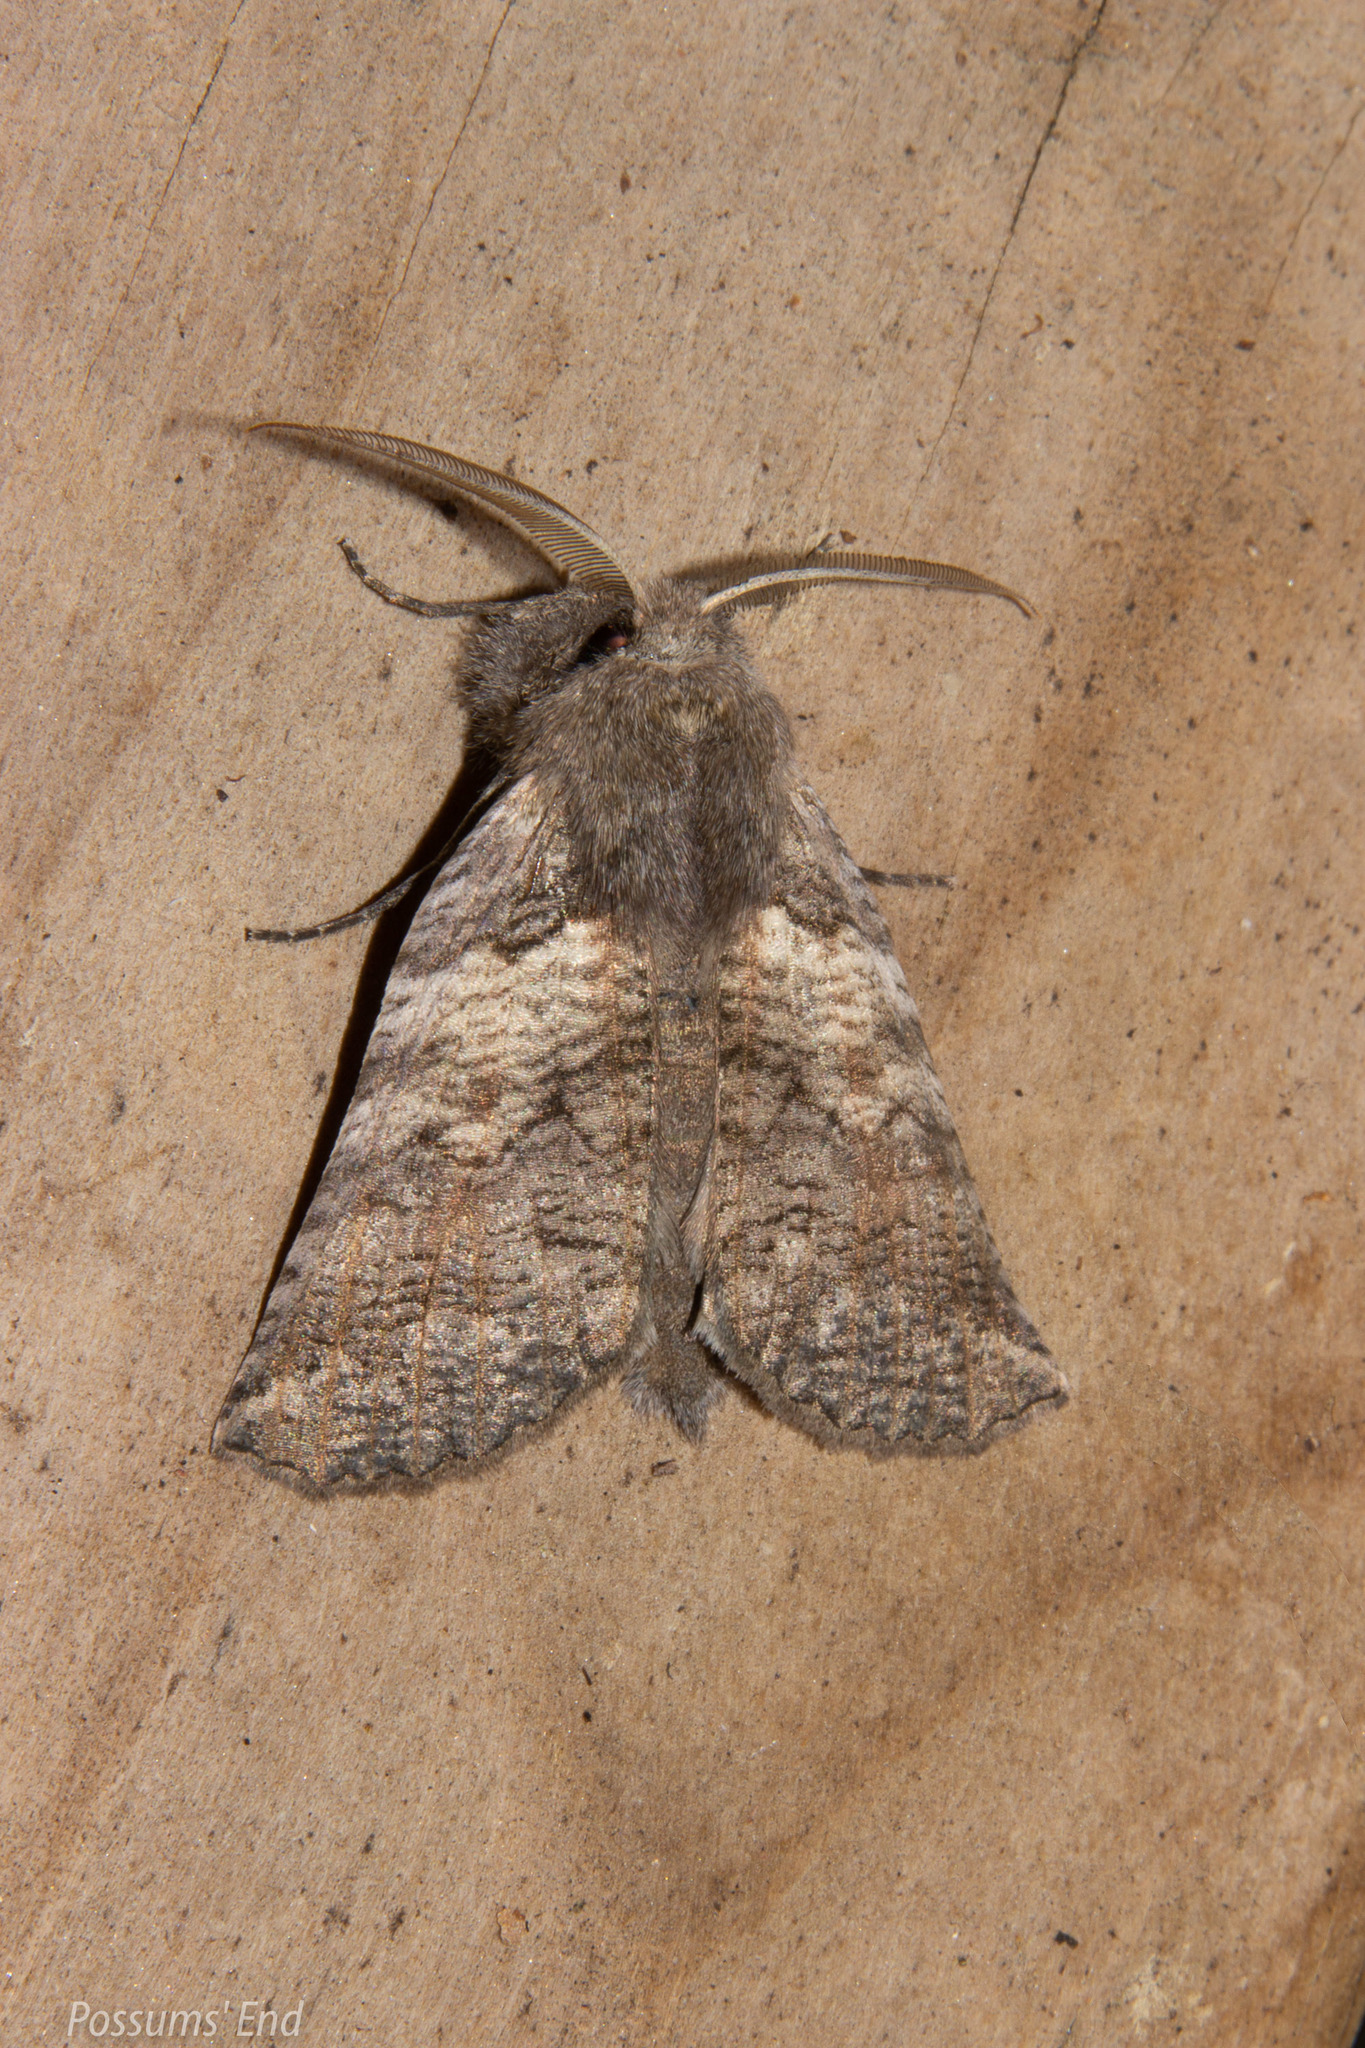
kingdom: Animalia
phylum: Arthropoda
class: Insecta
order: Lepidoptera
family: Geometridae
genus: Declana
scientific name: Declana
